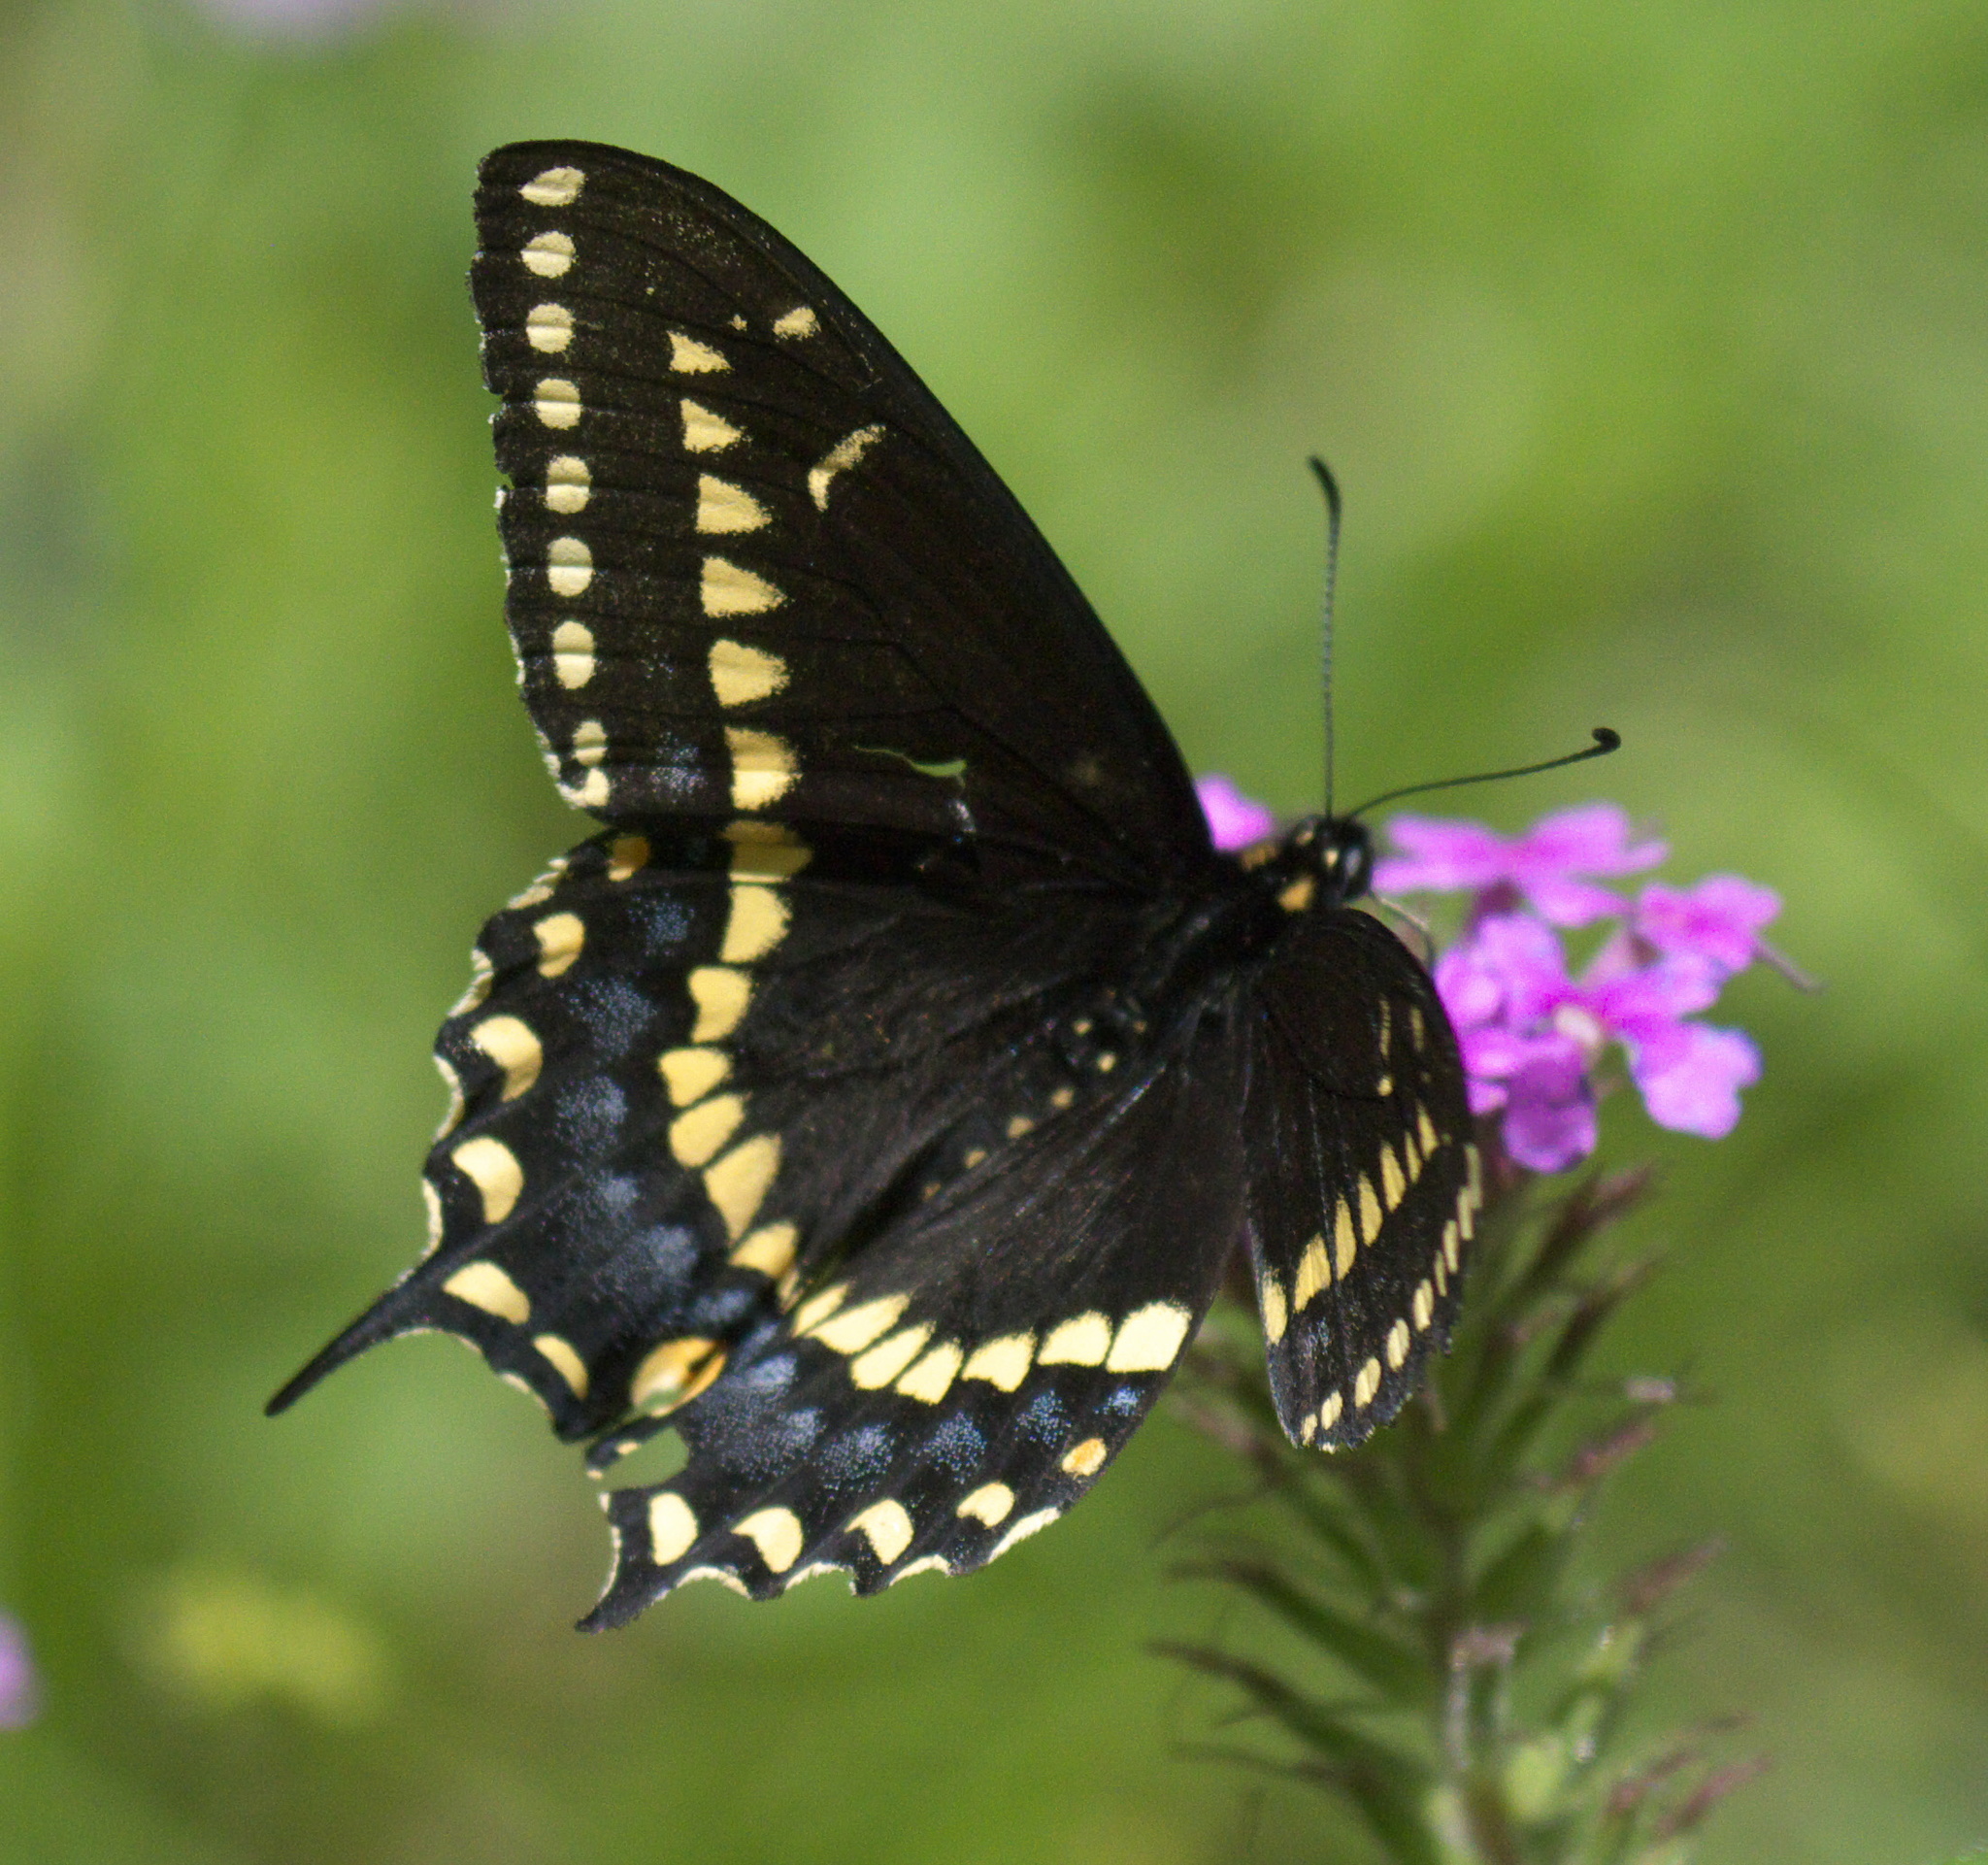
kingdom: Animalia
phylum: Arthropoda
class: Insecta
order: Lepidoptera
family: Papilionidae
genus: Papilio
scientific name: Papilio polyxenes
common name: Black swallowtail
